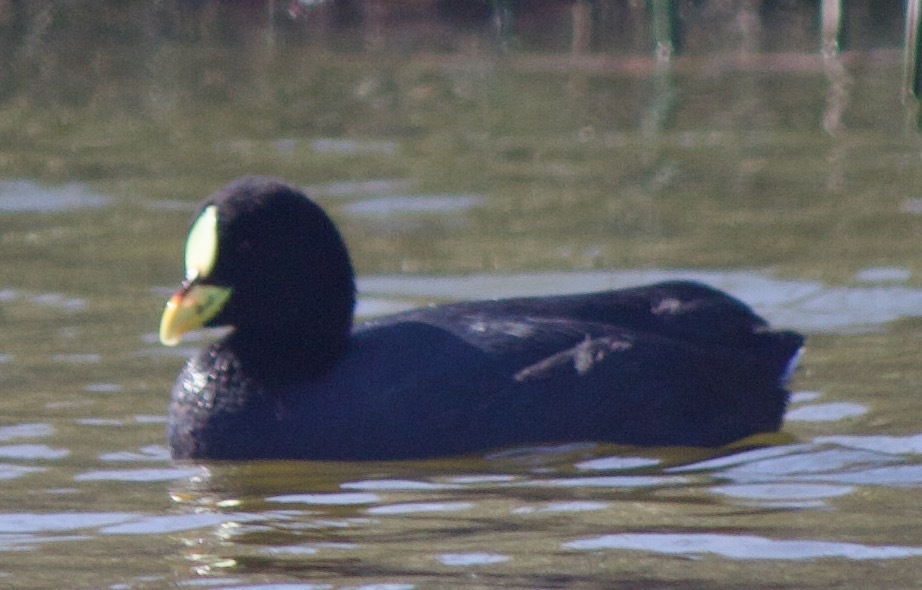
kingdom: Animalia
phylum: Chordata
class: Aves
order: Gruiformes
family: Rallidae
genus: Fulica
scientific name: Fulica armillata
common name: Red-gartered coot
